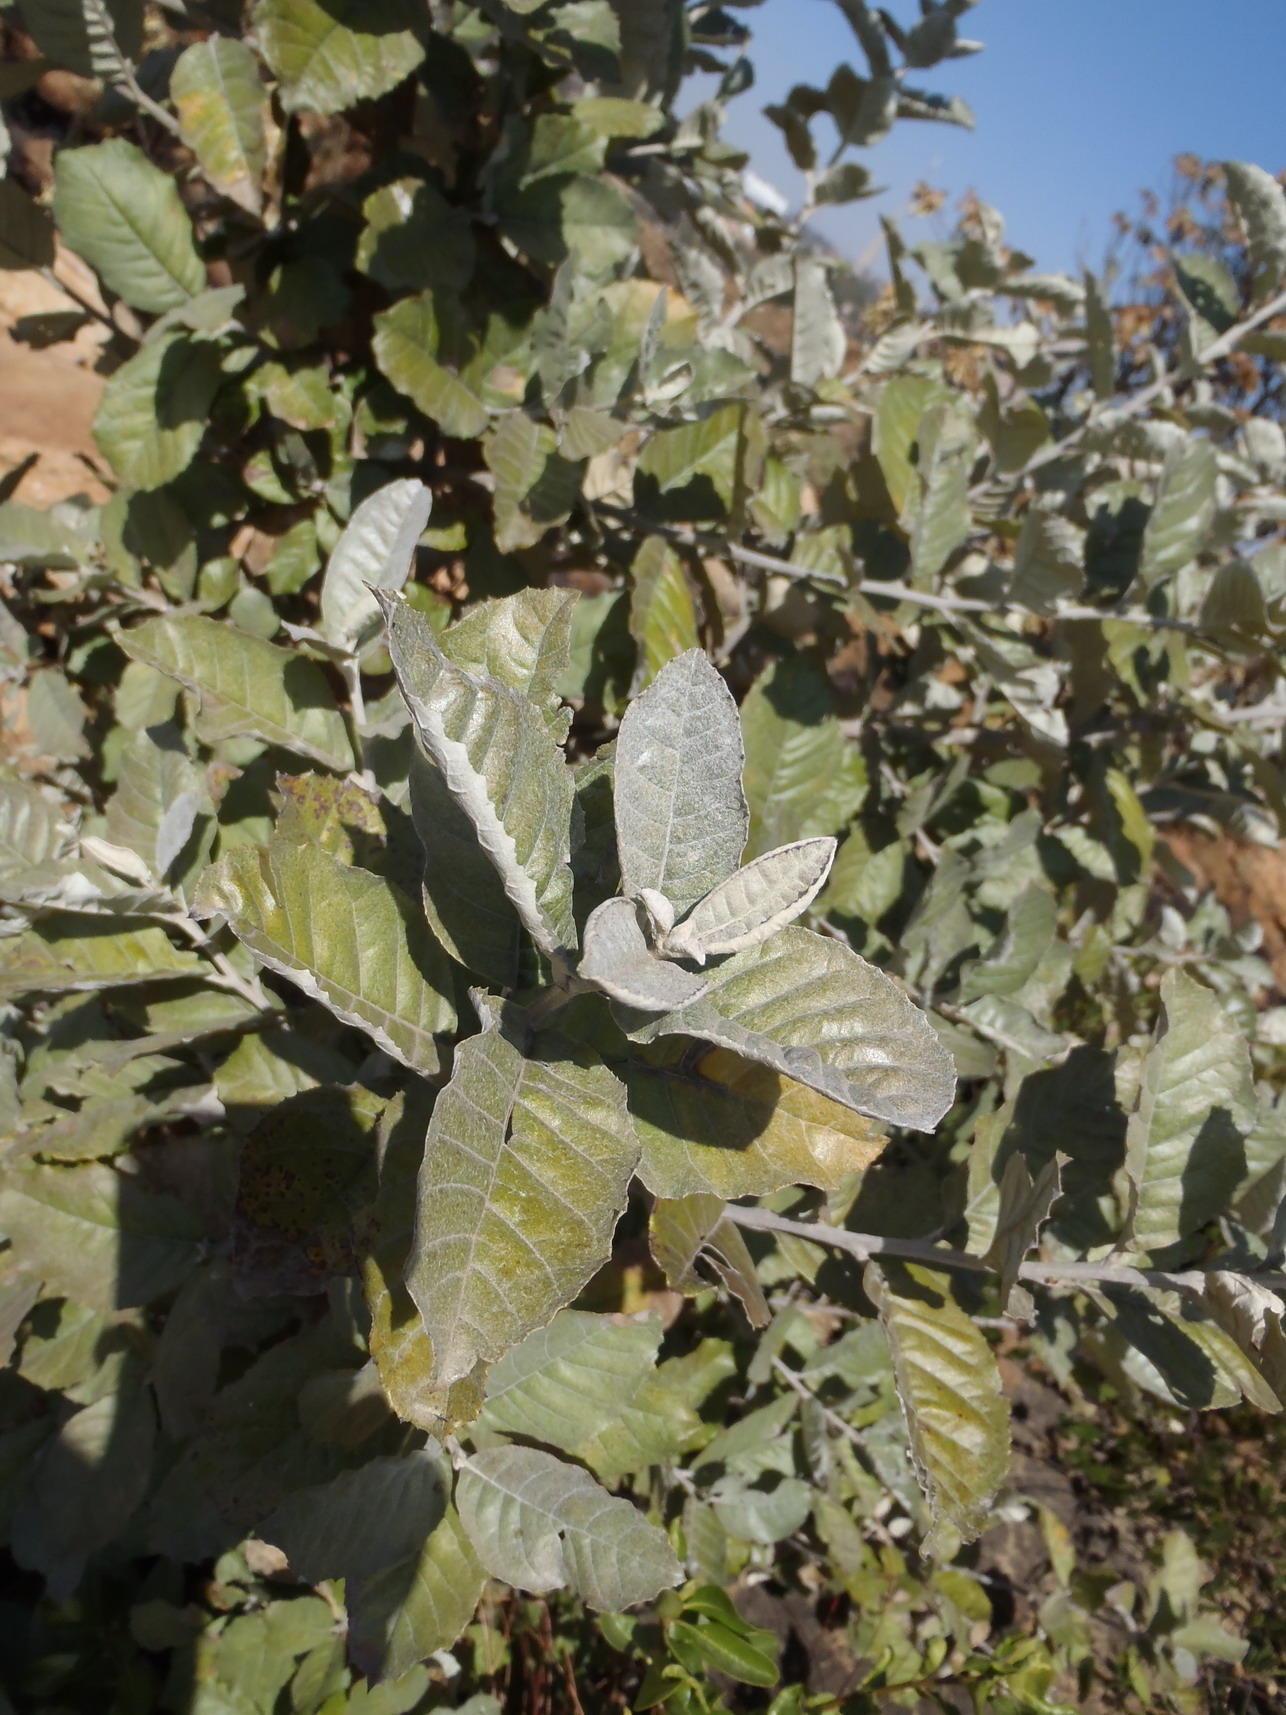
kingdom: Plantae
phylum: Tracheophyta
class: Magnoliopsida
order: Asterales
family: Asteraceae
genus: Brachylaena
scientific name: Brachylaena discolor
